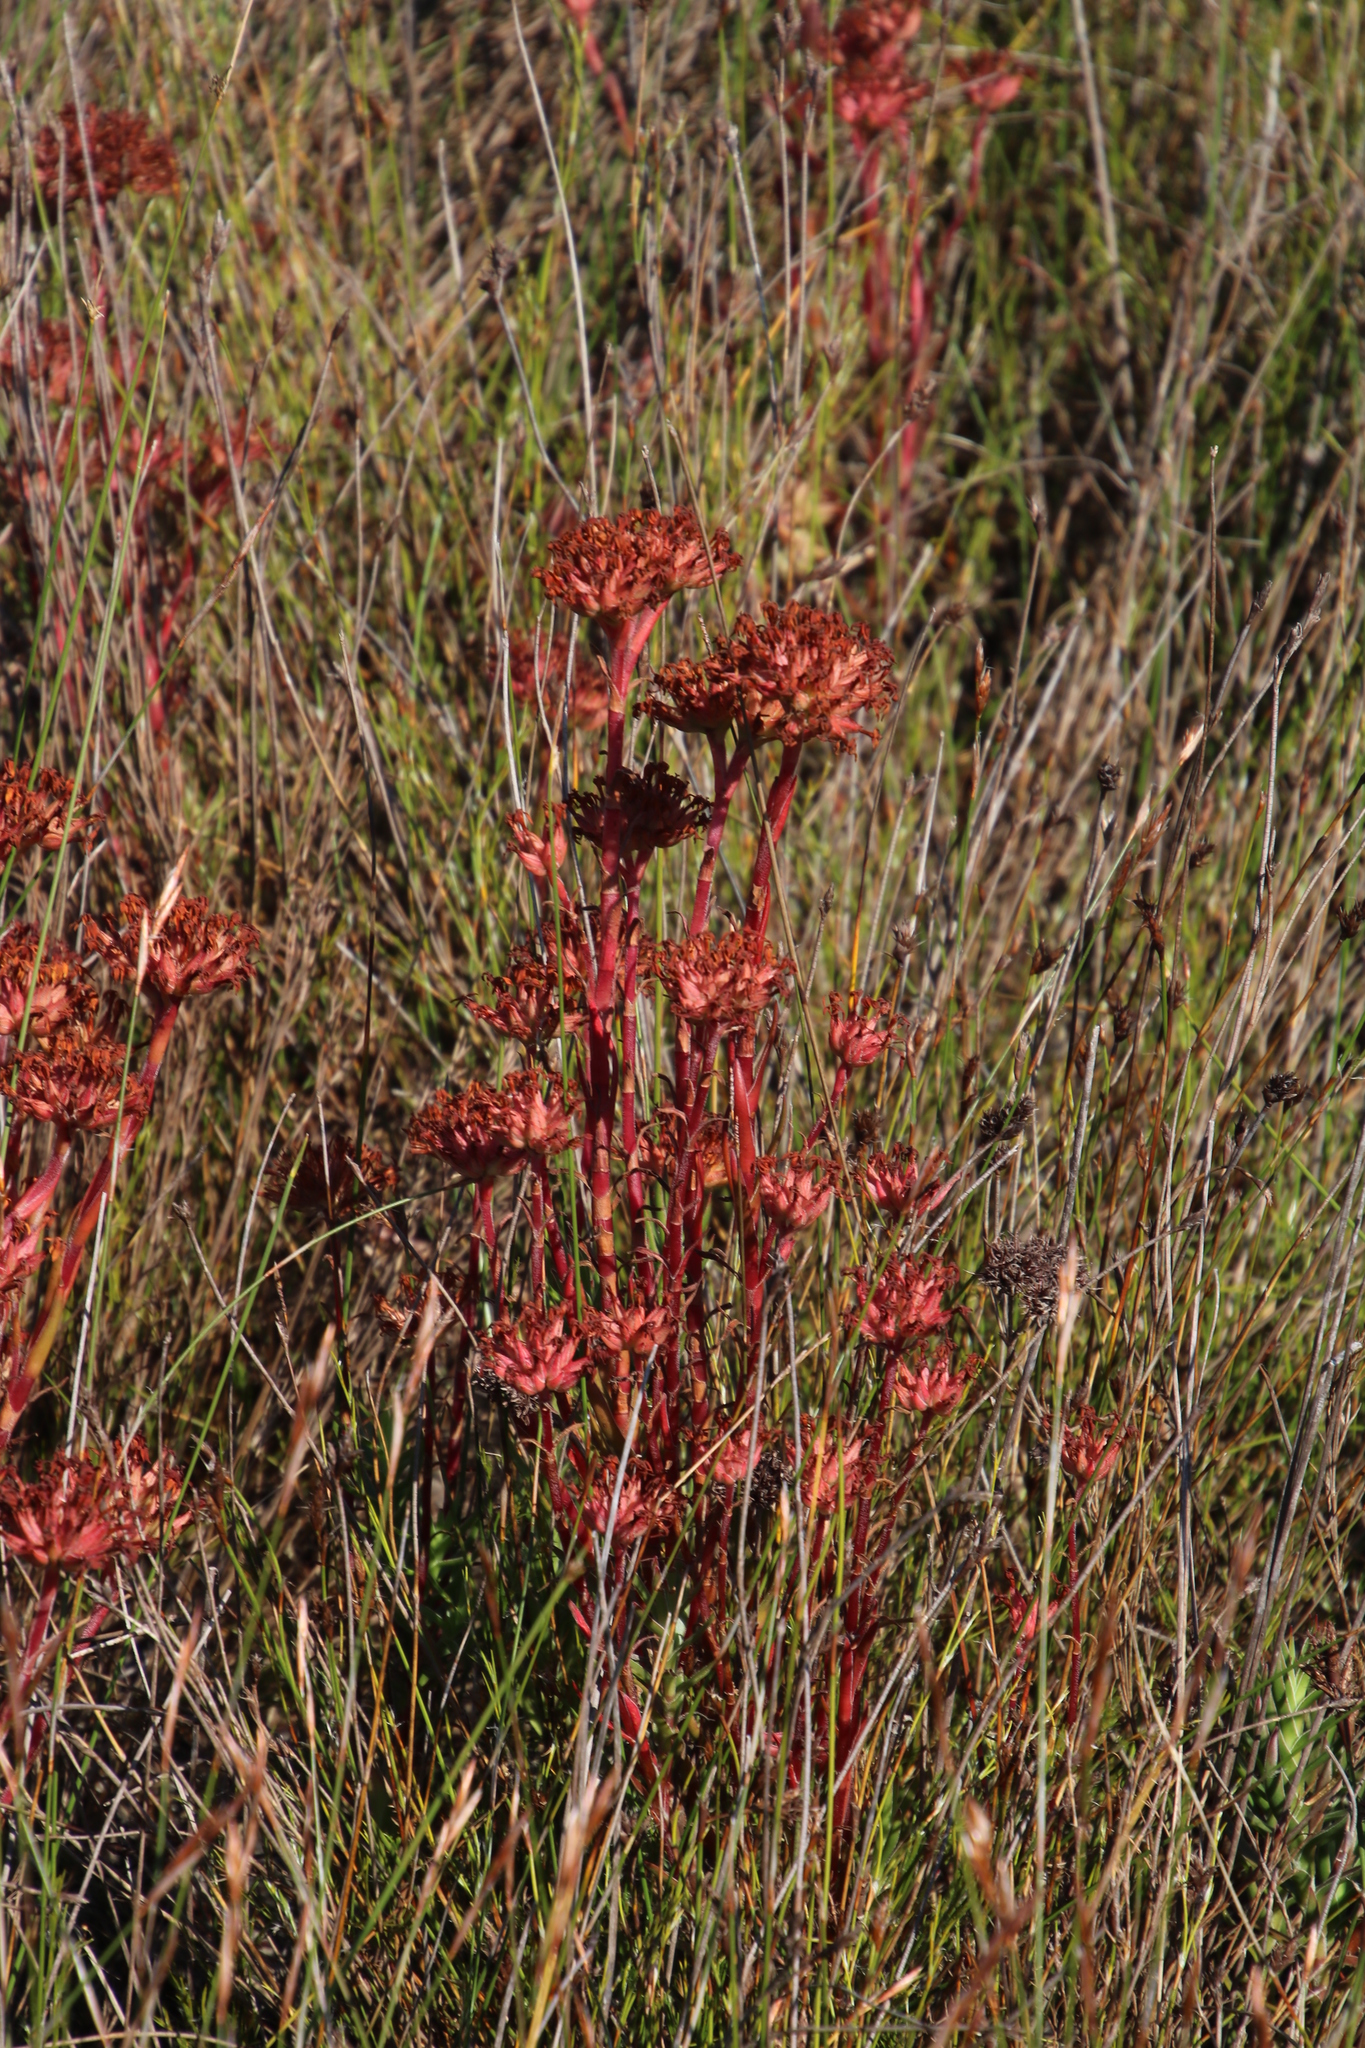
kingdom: Plantae
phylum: Tracheophyta
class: Magnoliopsida
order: Saxifragales
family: Crassulaceae
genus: Crassula
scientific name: Crassula fascicularis
